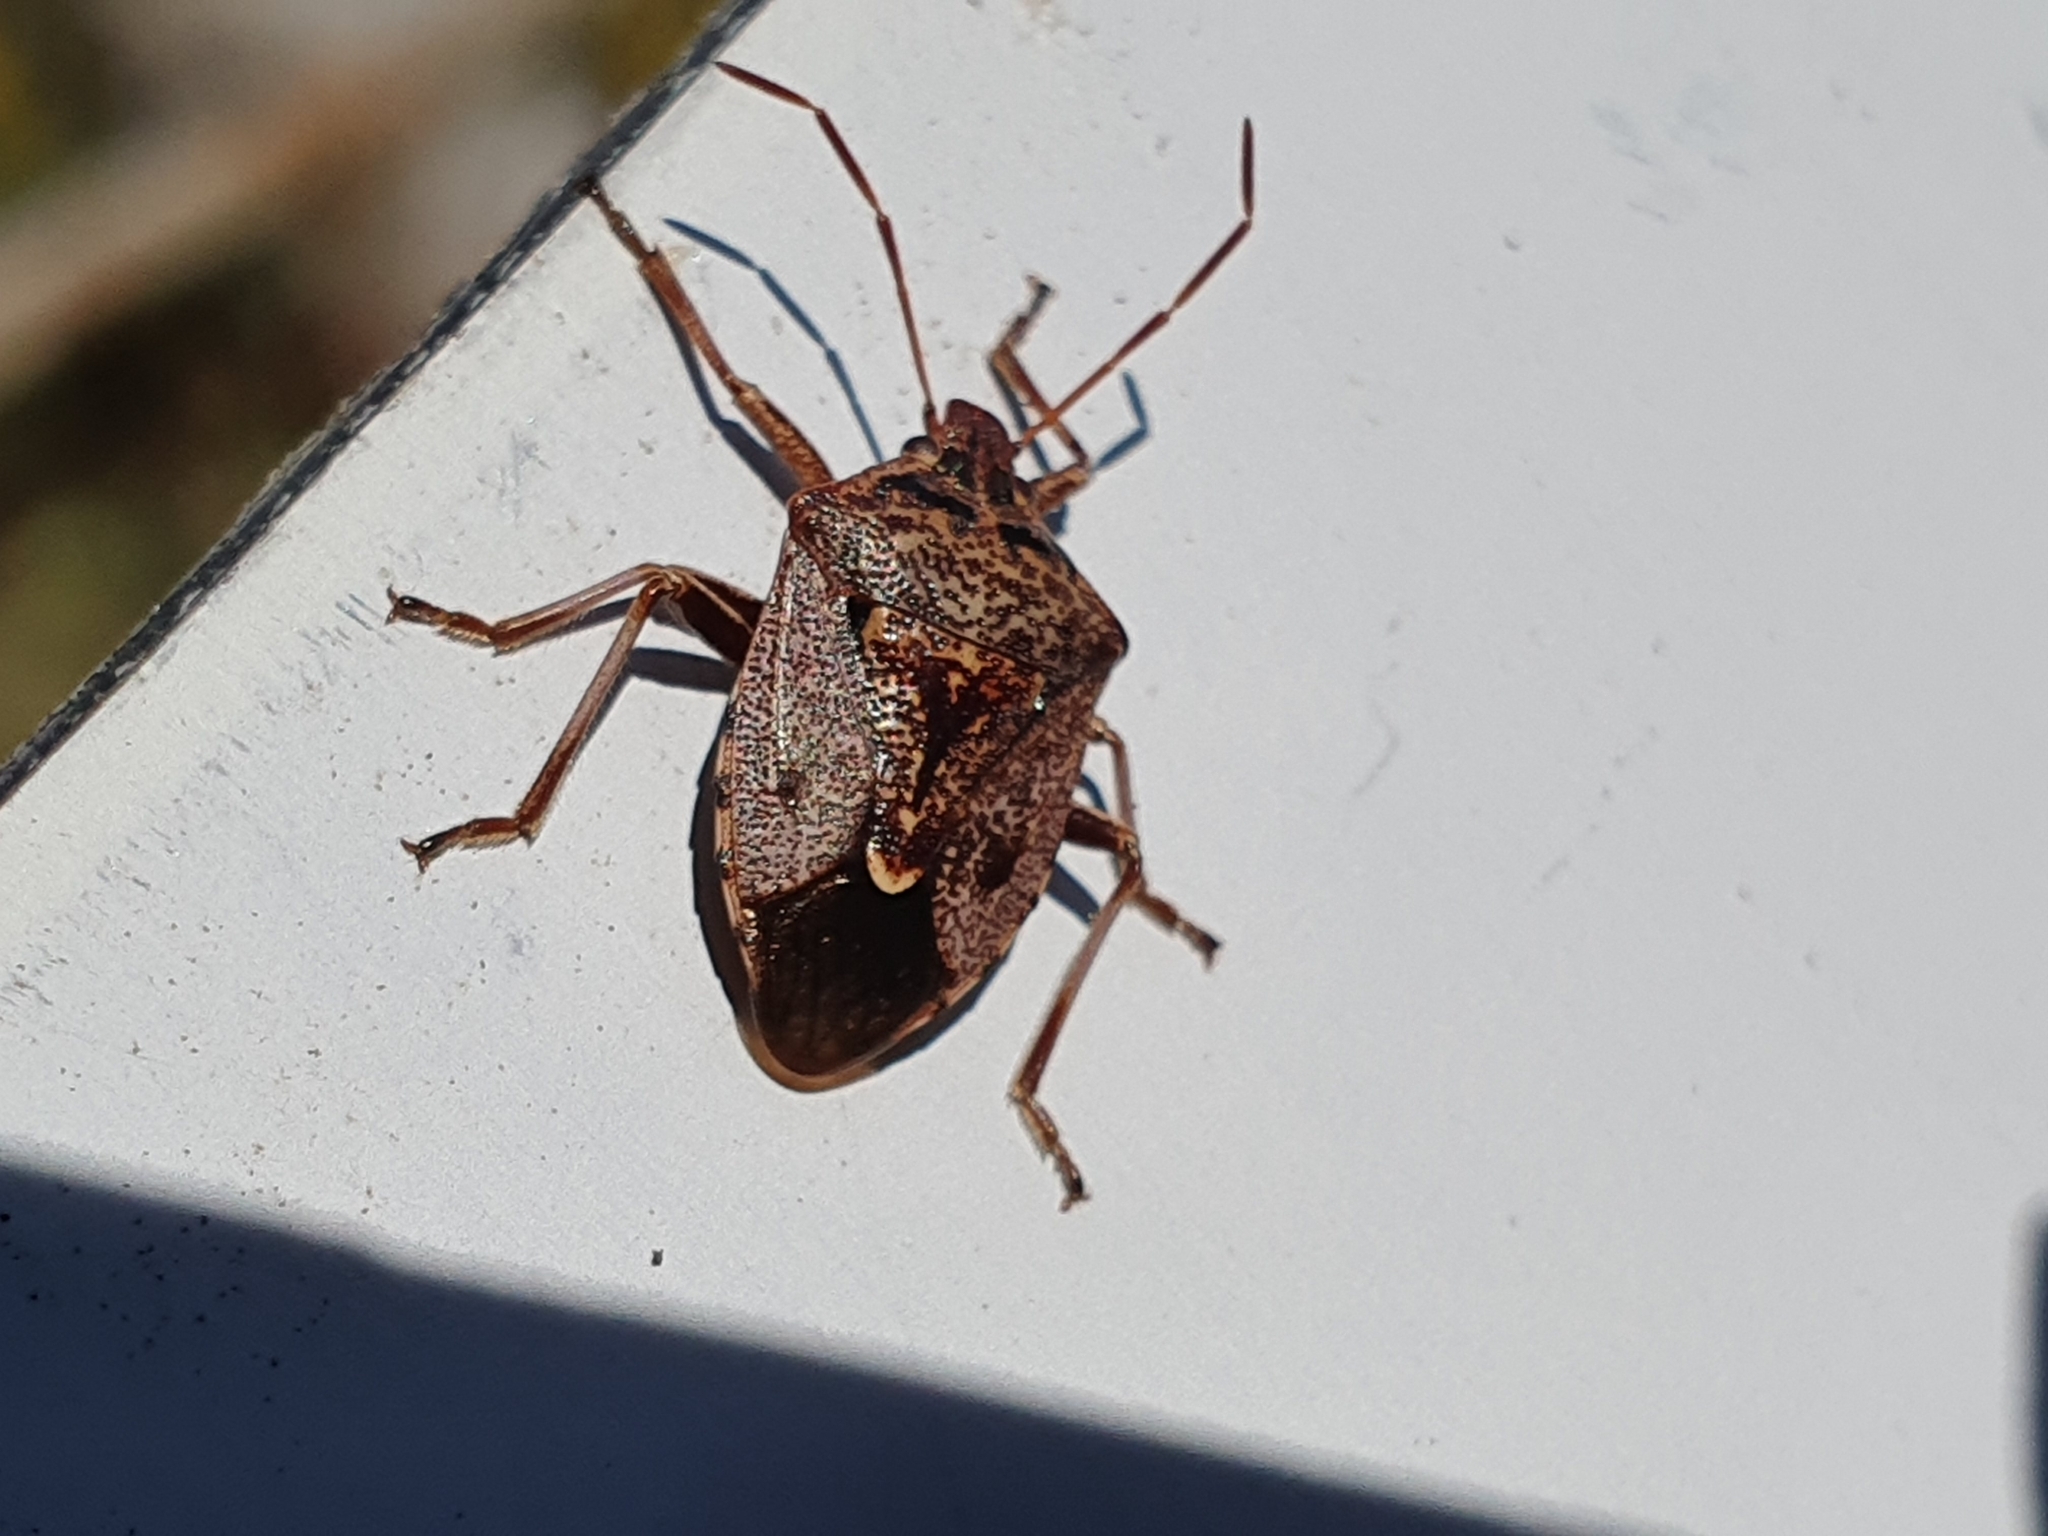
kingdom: Animalia
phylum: Arthropoda
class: Insecta
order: Hemiptera
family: Pentatomidae
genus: Cermatulus
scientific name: Cermatulus nasalis
